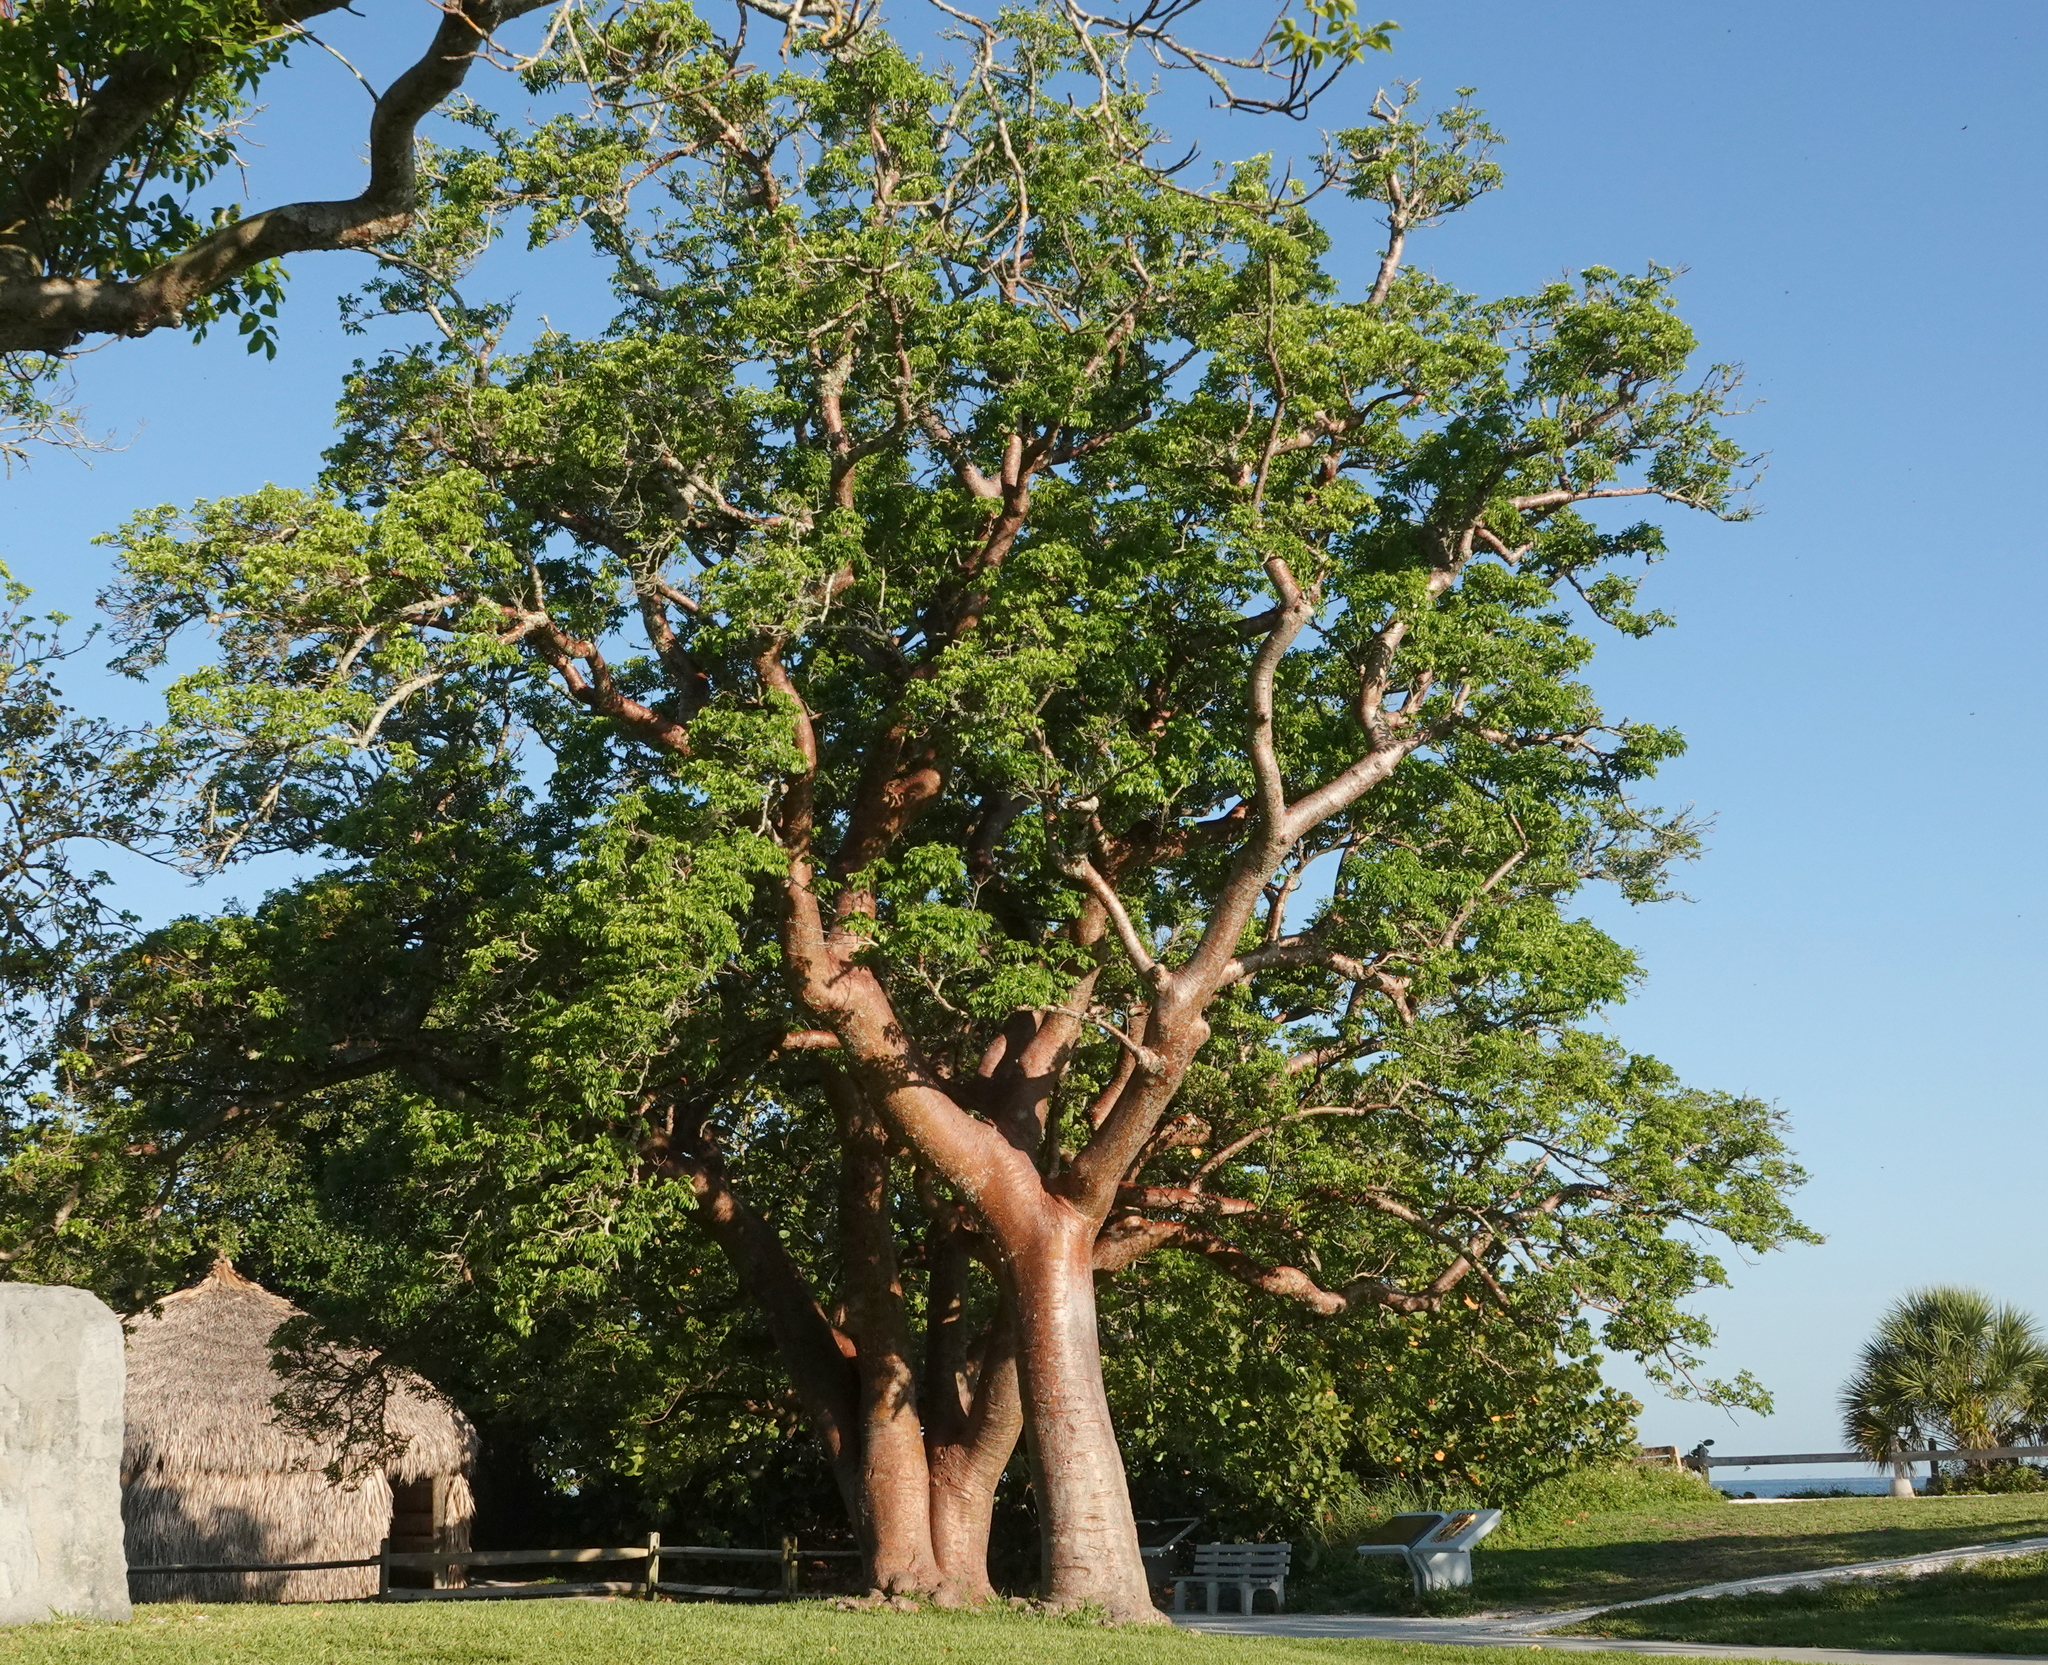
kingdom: Plantae
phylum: Tracheophyta
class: Magnoliopsida
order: Sapindales
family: Burseraceae
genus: Bursera
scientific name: Bursera simaruba
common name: Turpentine tree
